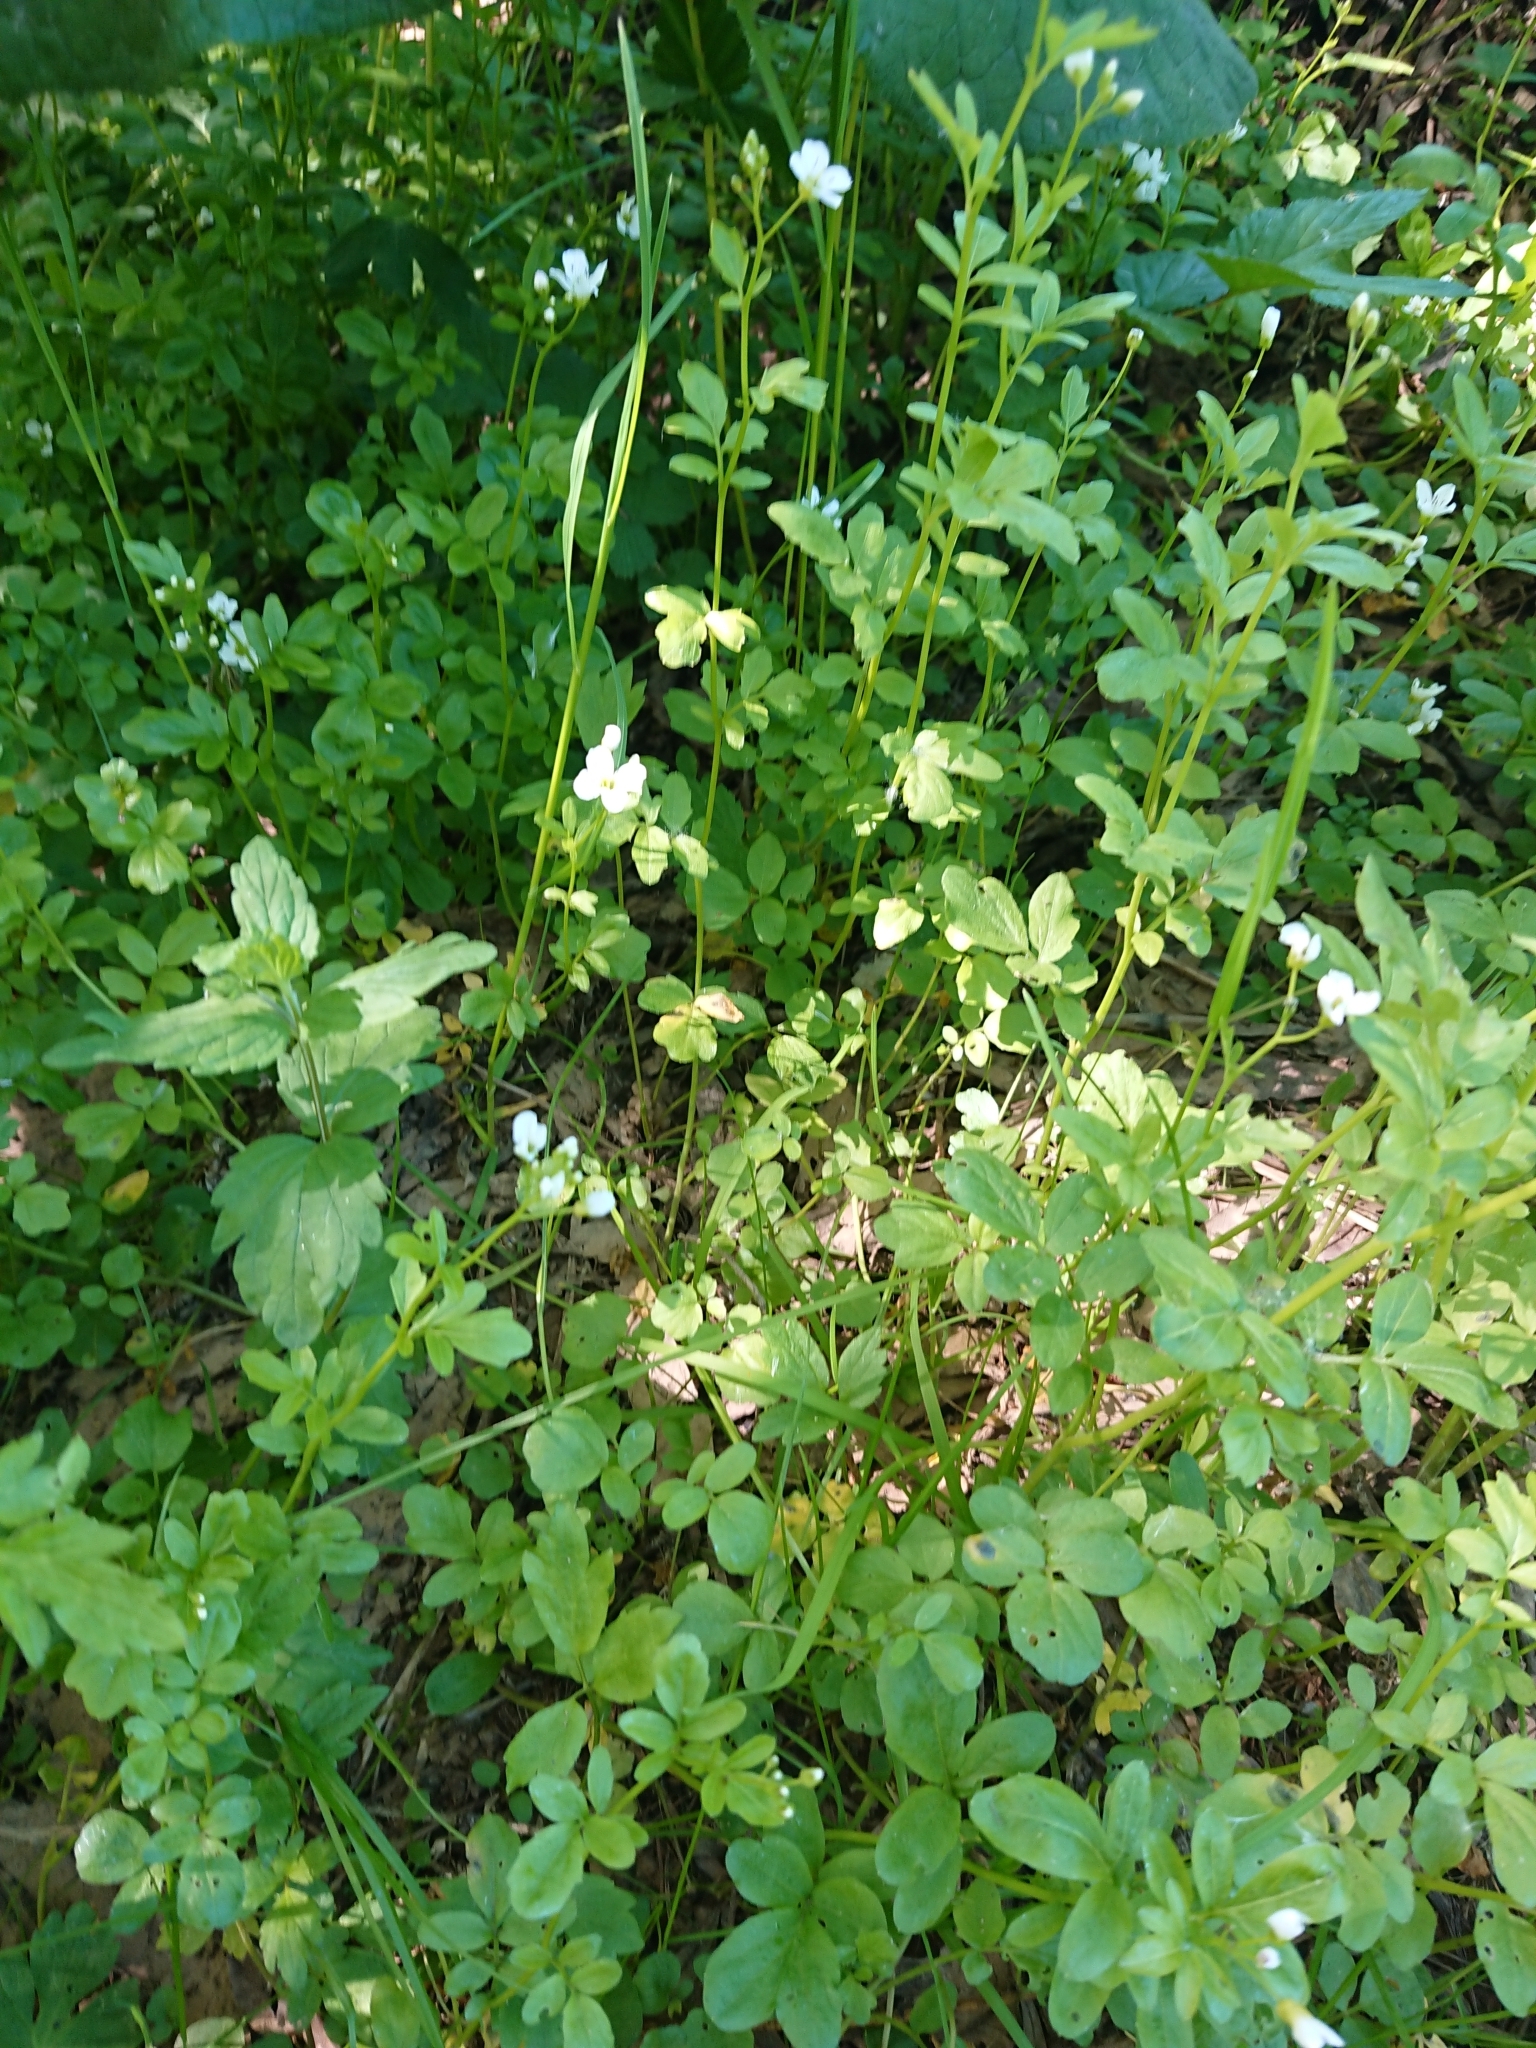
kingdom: Plantae
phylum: Tracheophyta
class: Magnoliopsida
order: Brassicales
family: Brassicaceae
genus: Cardamine
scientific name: Cardamine amara
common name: Large bitter-cress
